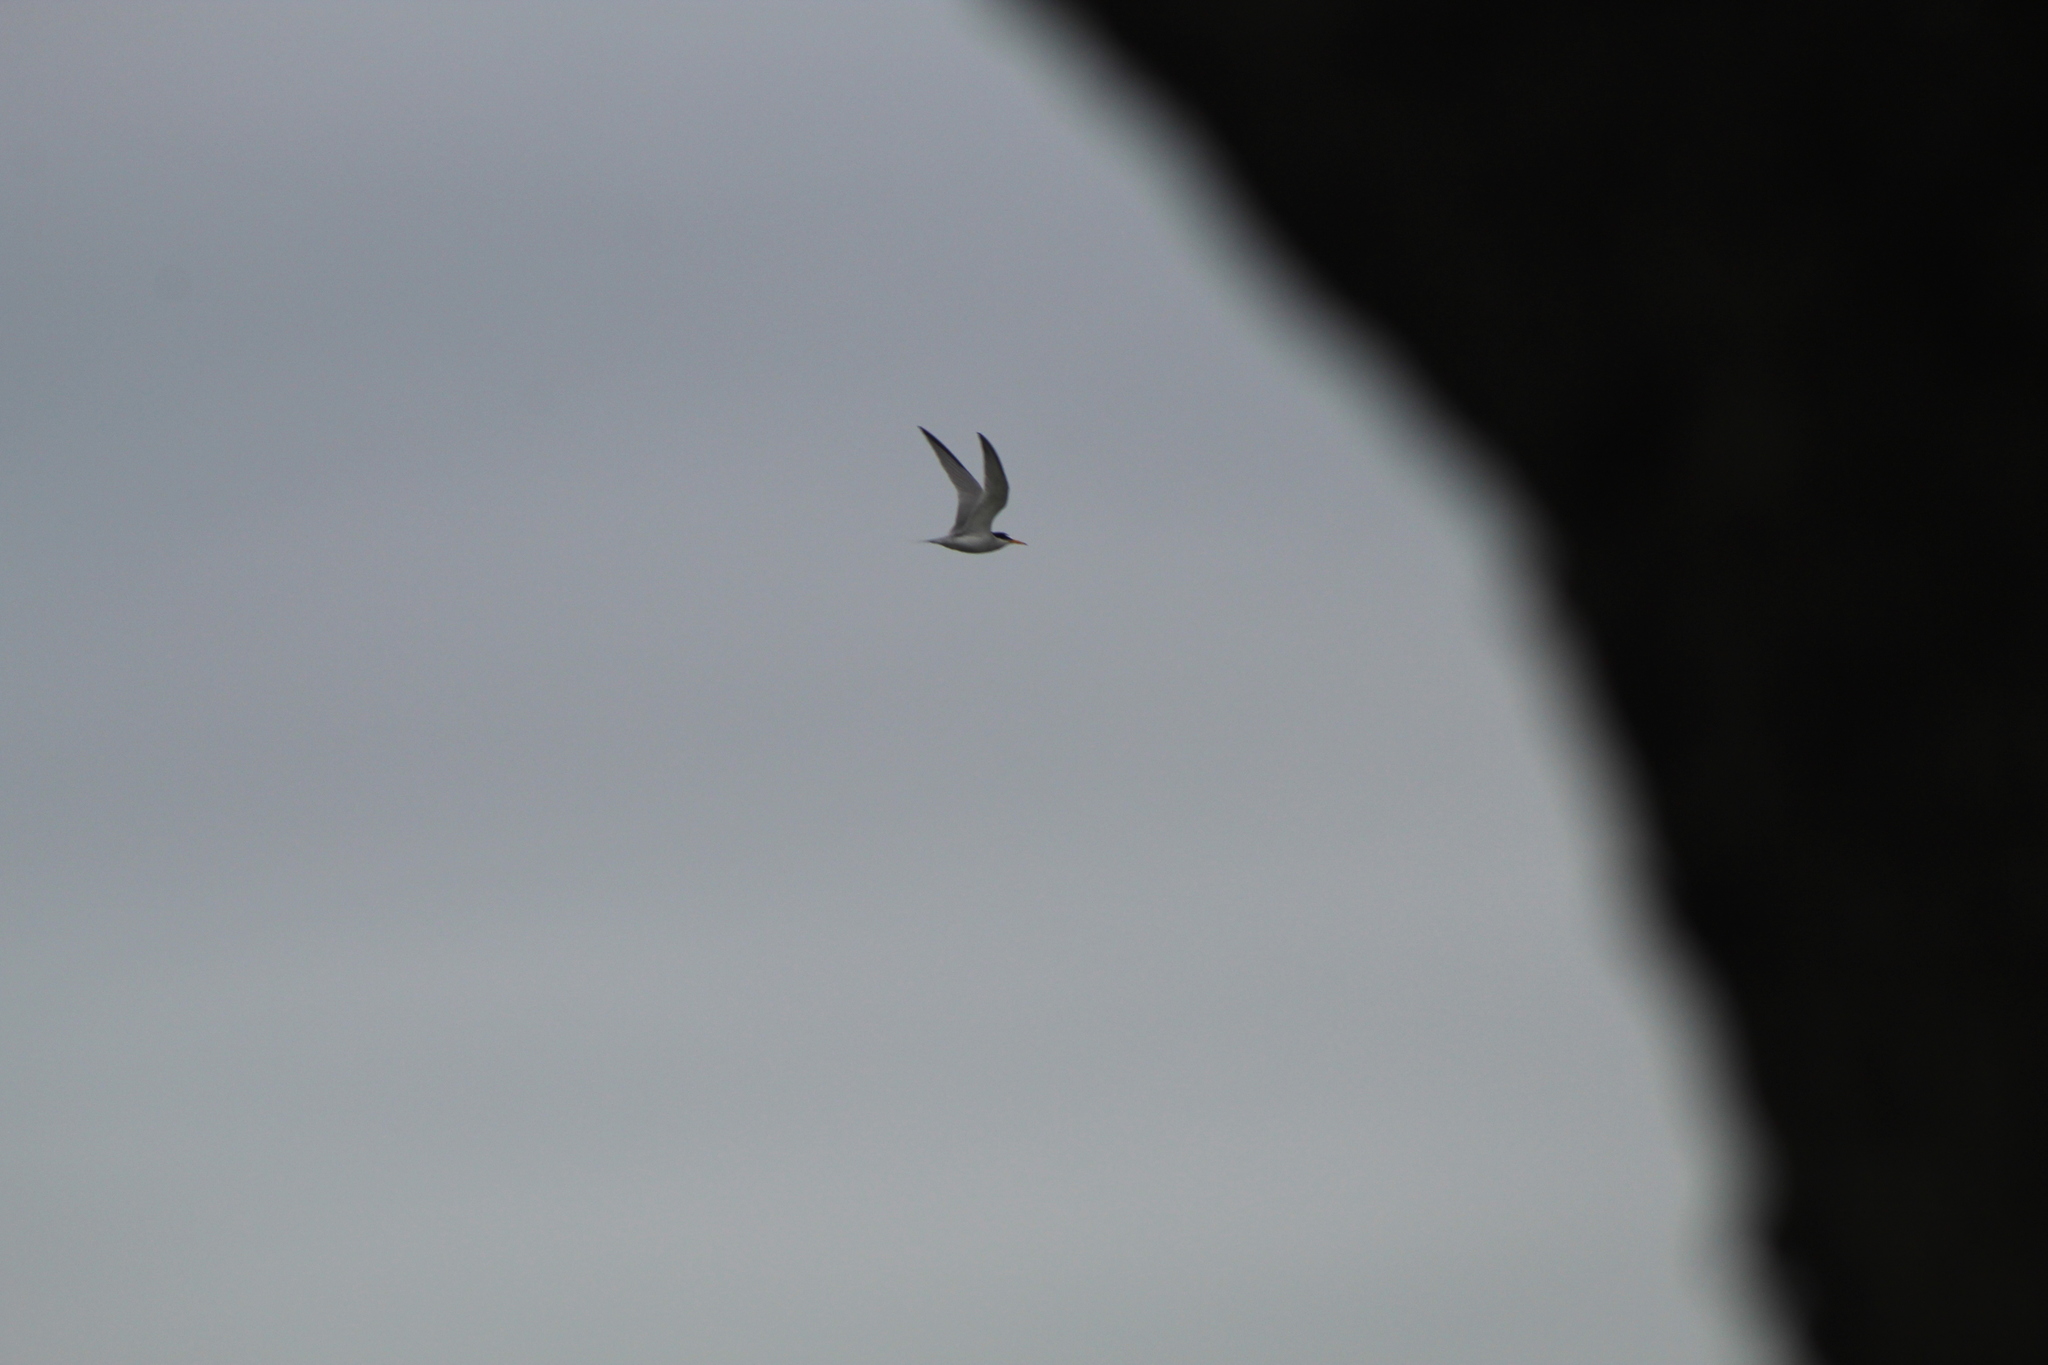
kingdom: Animalia
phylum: Chordata
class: Aves
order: Charadriiformes
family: Laridae
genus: Sternula
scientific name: Sternula antillarum
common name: Least tern
